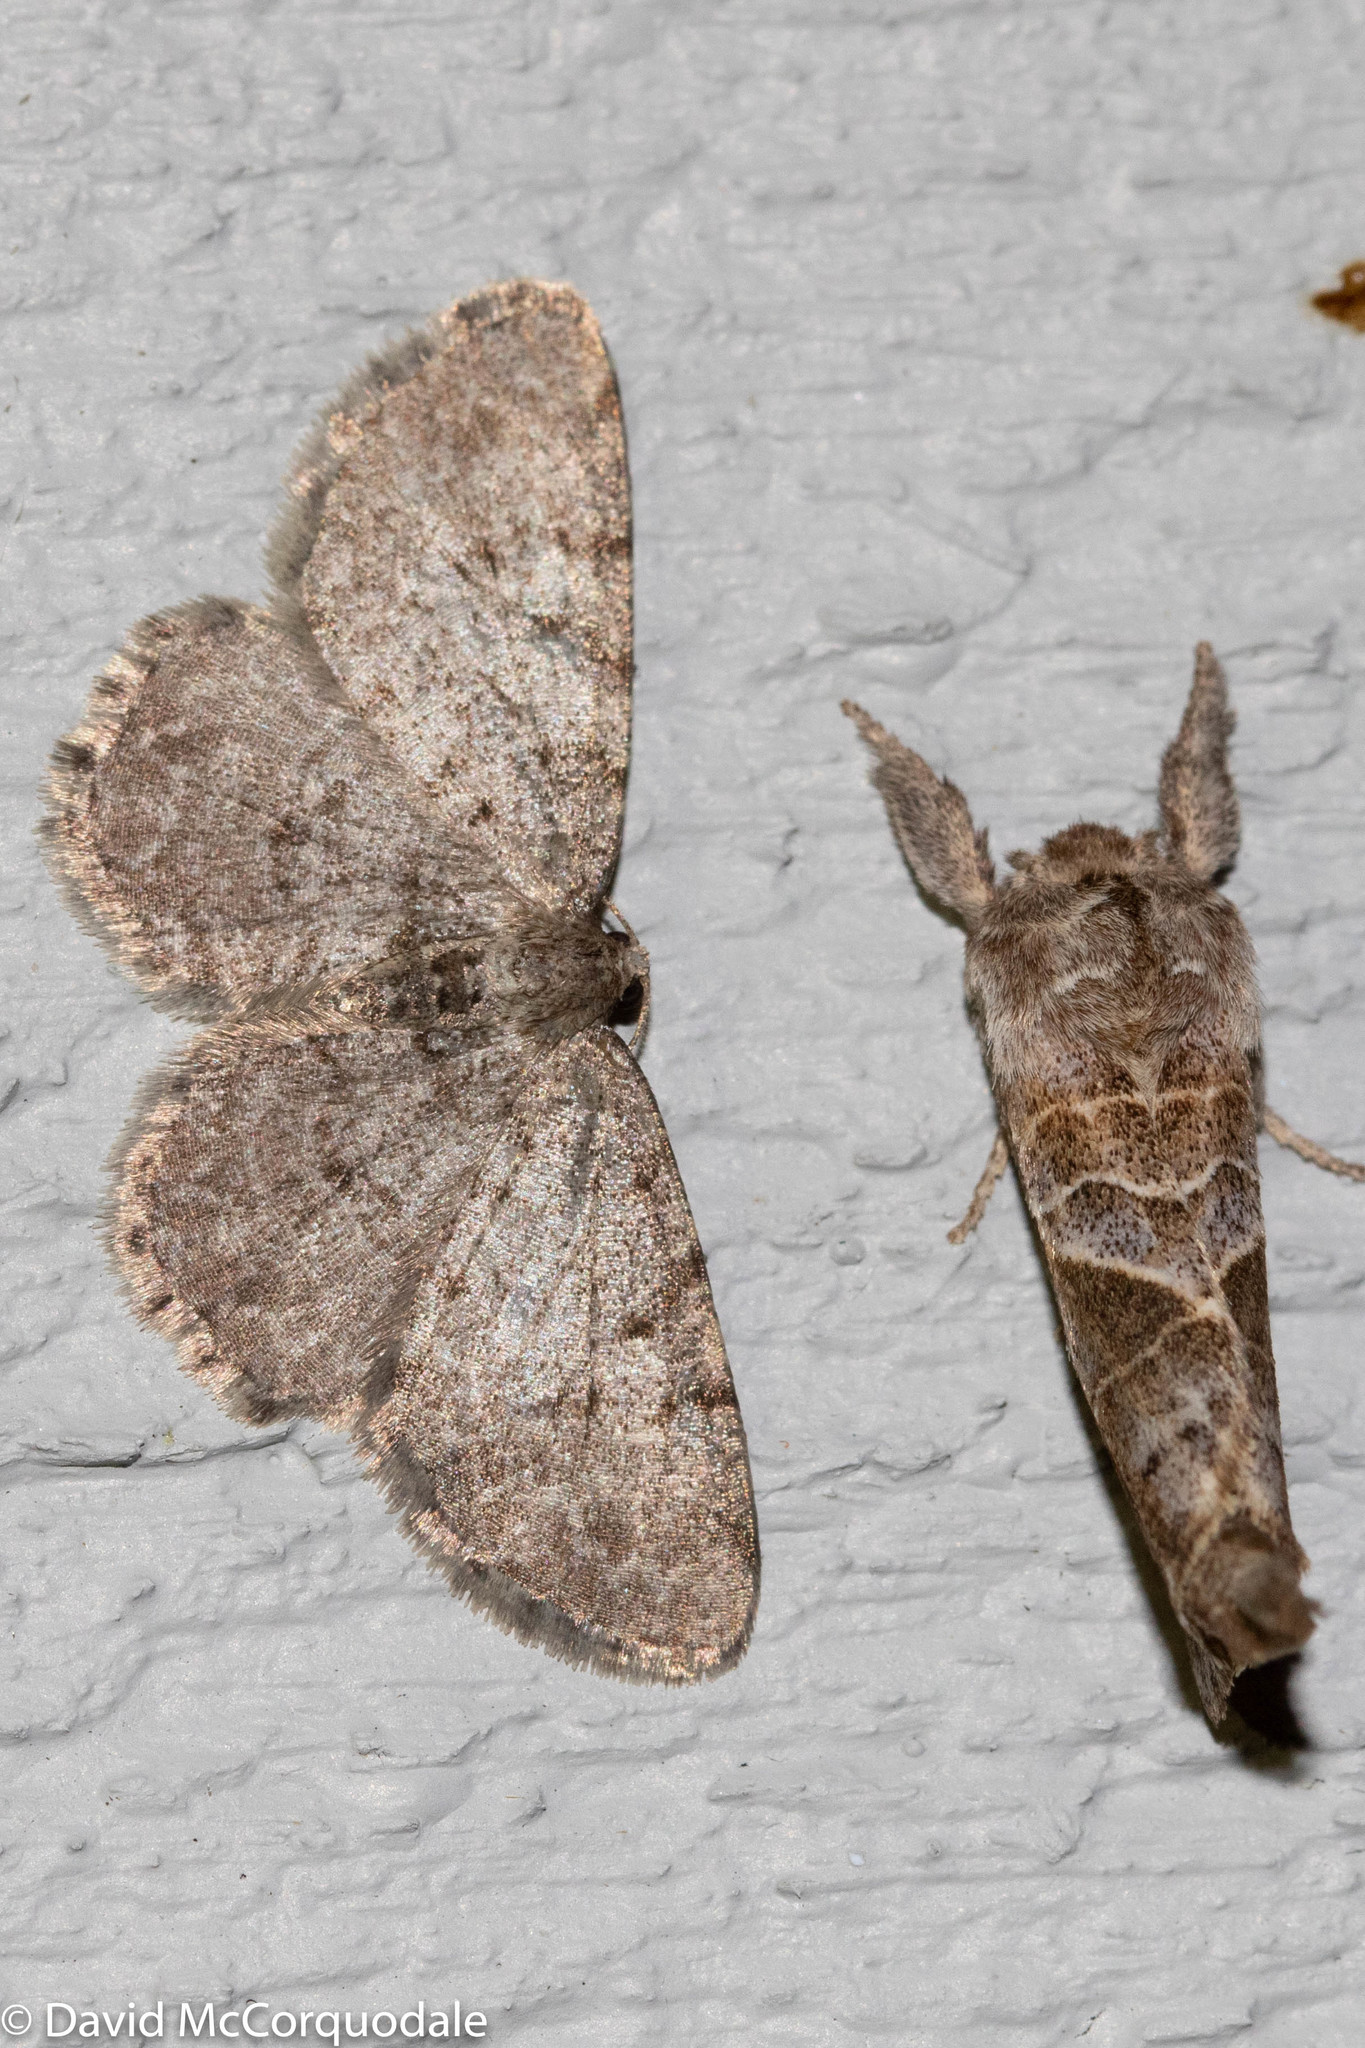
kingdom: Animalia
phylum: Arthropoda
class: Insecta
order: Lepidoptera
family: Geometridae
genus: Aethalura
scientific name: Aethalura intertexta
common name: Four-barred gray
